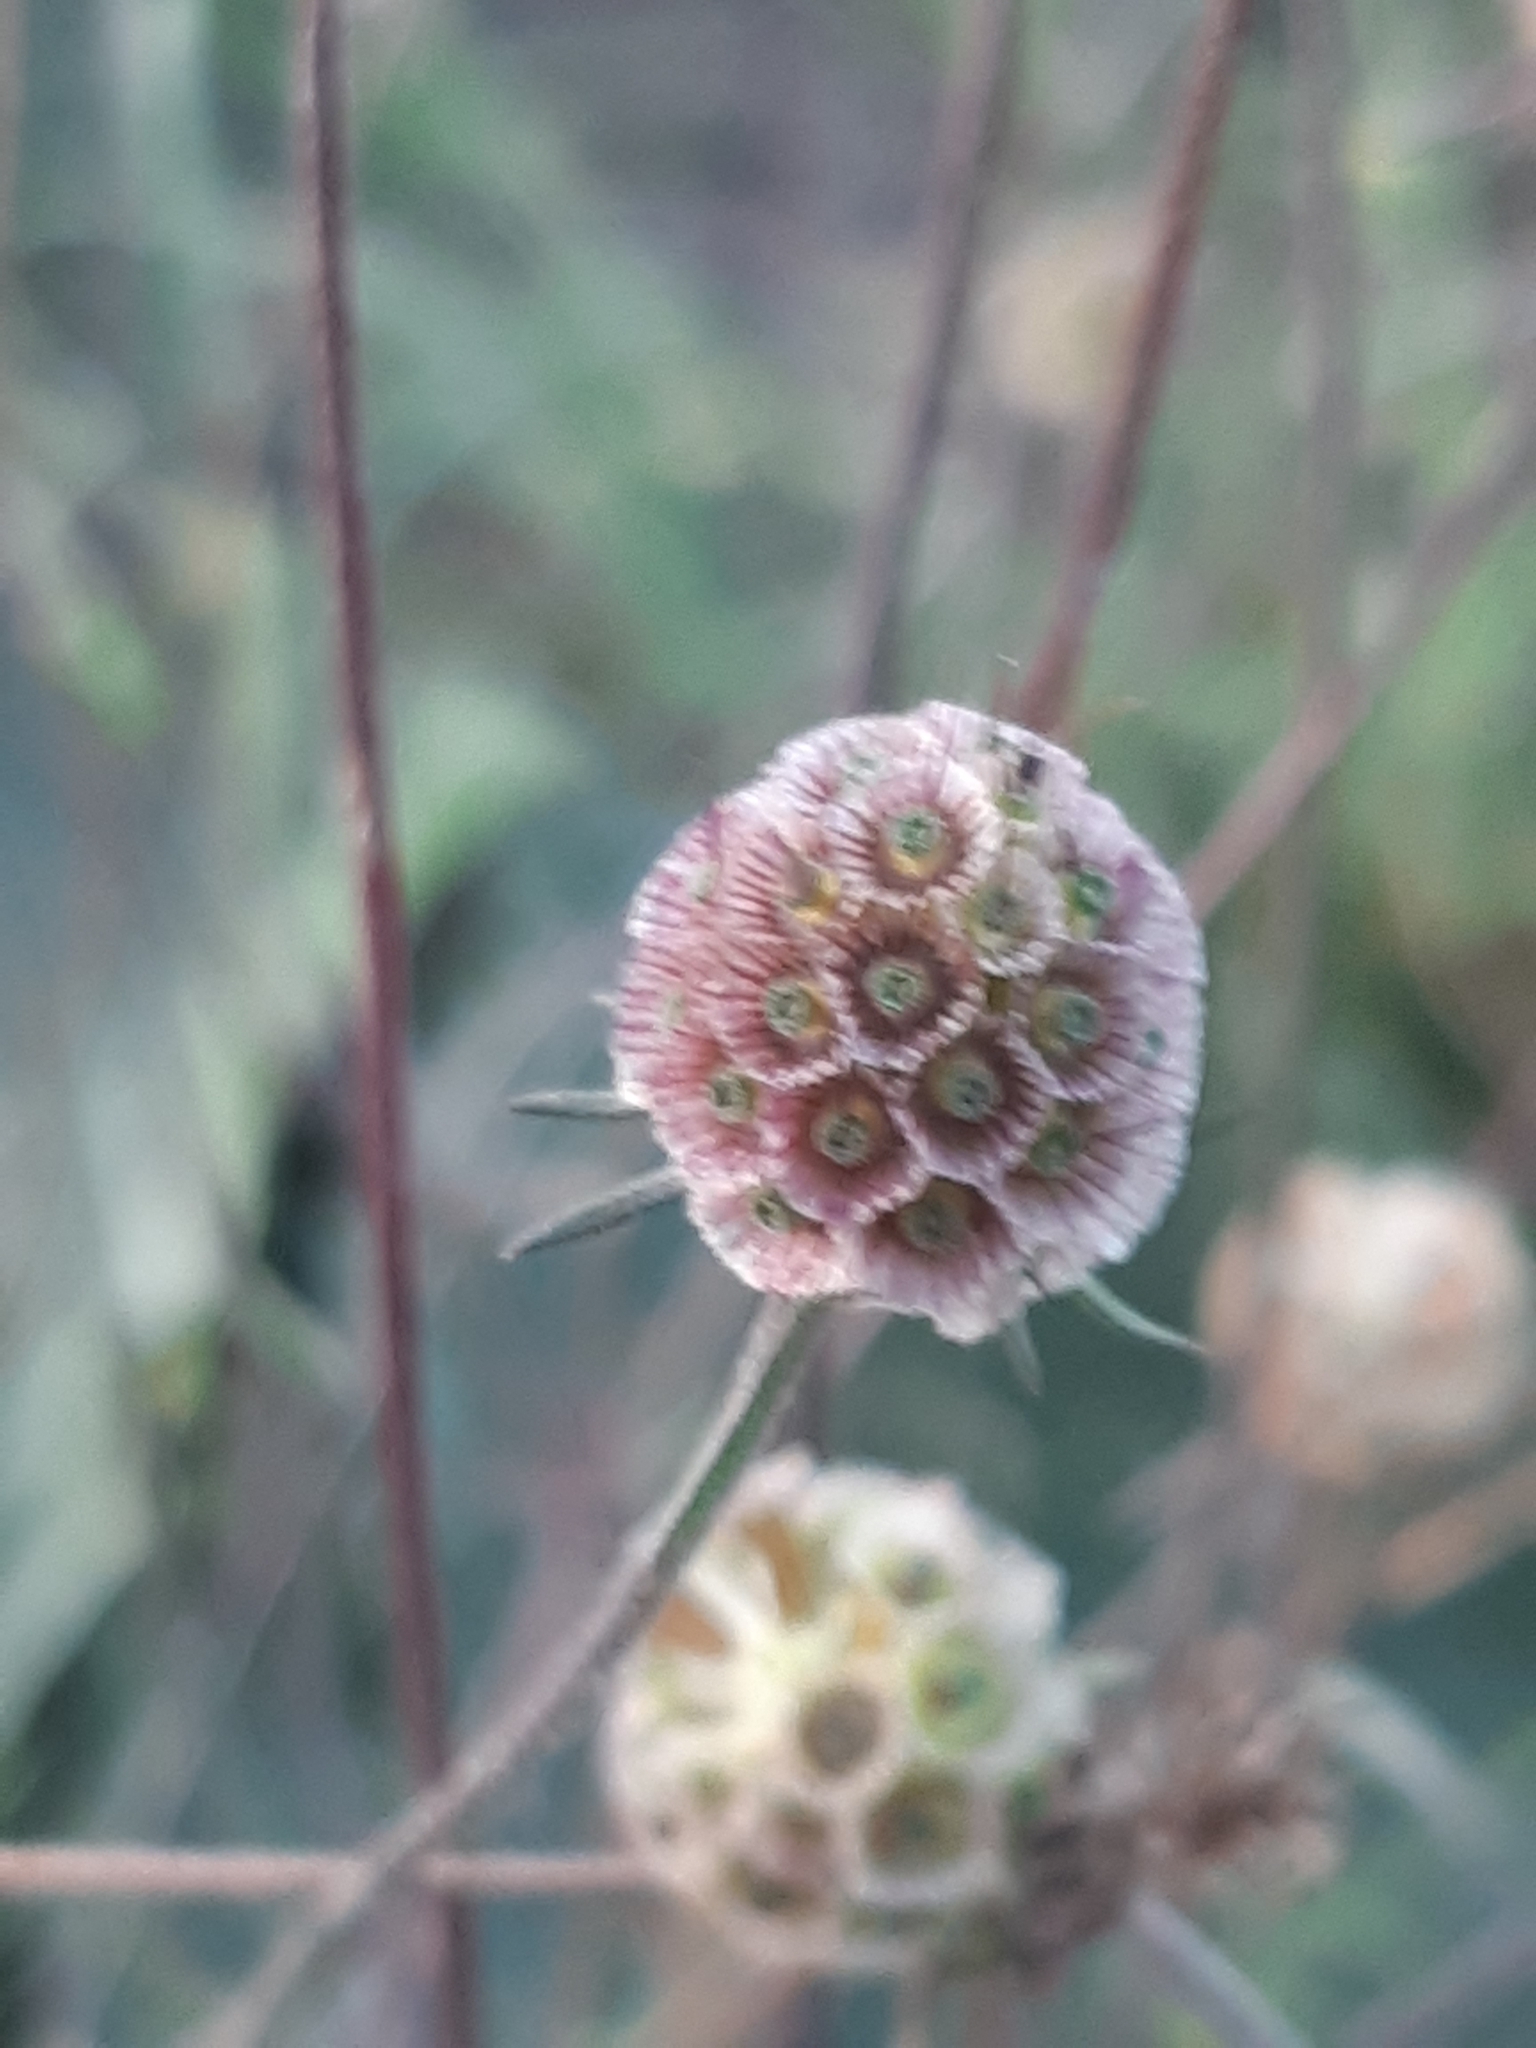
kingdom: Plantae
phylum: Tracheophyta
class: Magnoliopsida
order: Dipsacales
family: Caprifoliaceae
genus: Scabiosa
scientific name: Scabiosa triandra
